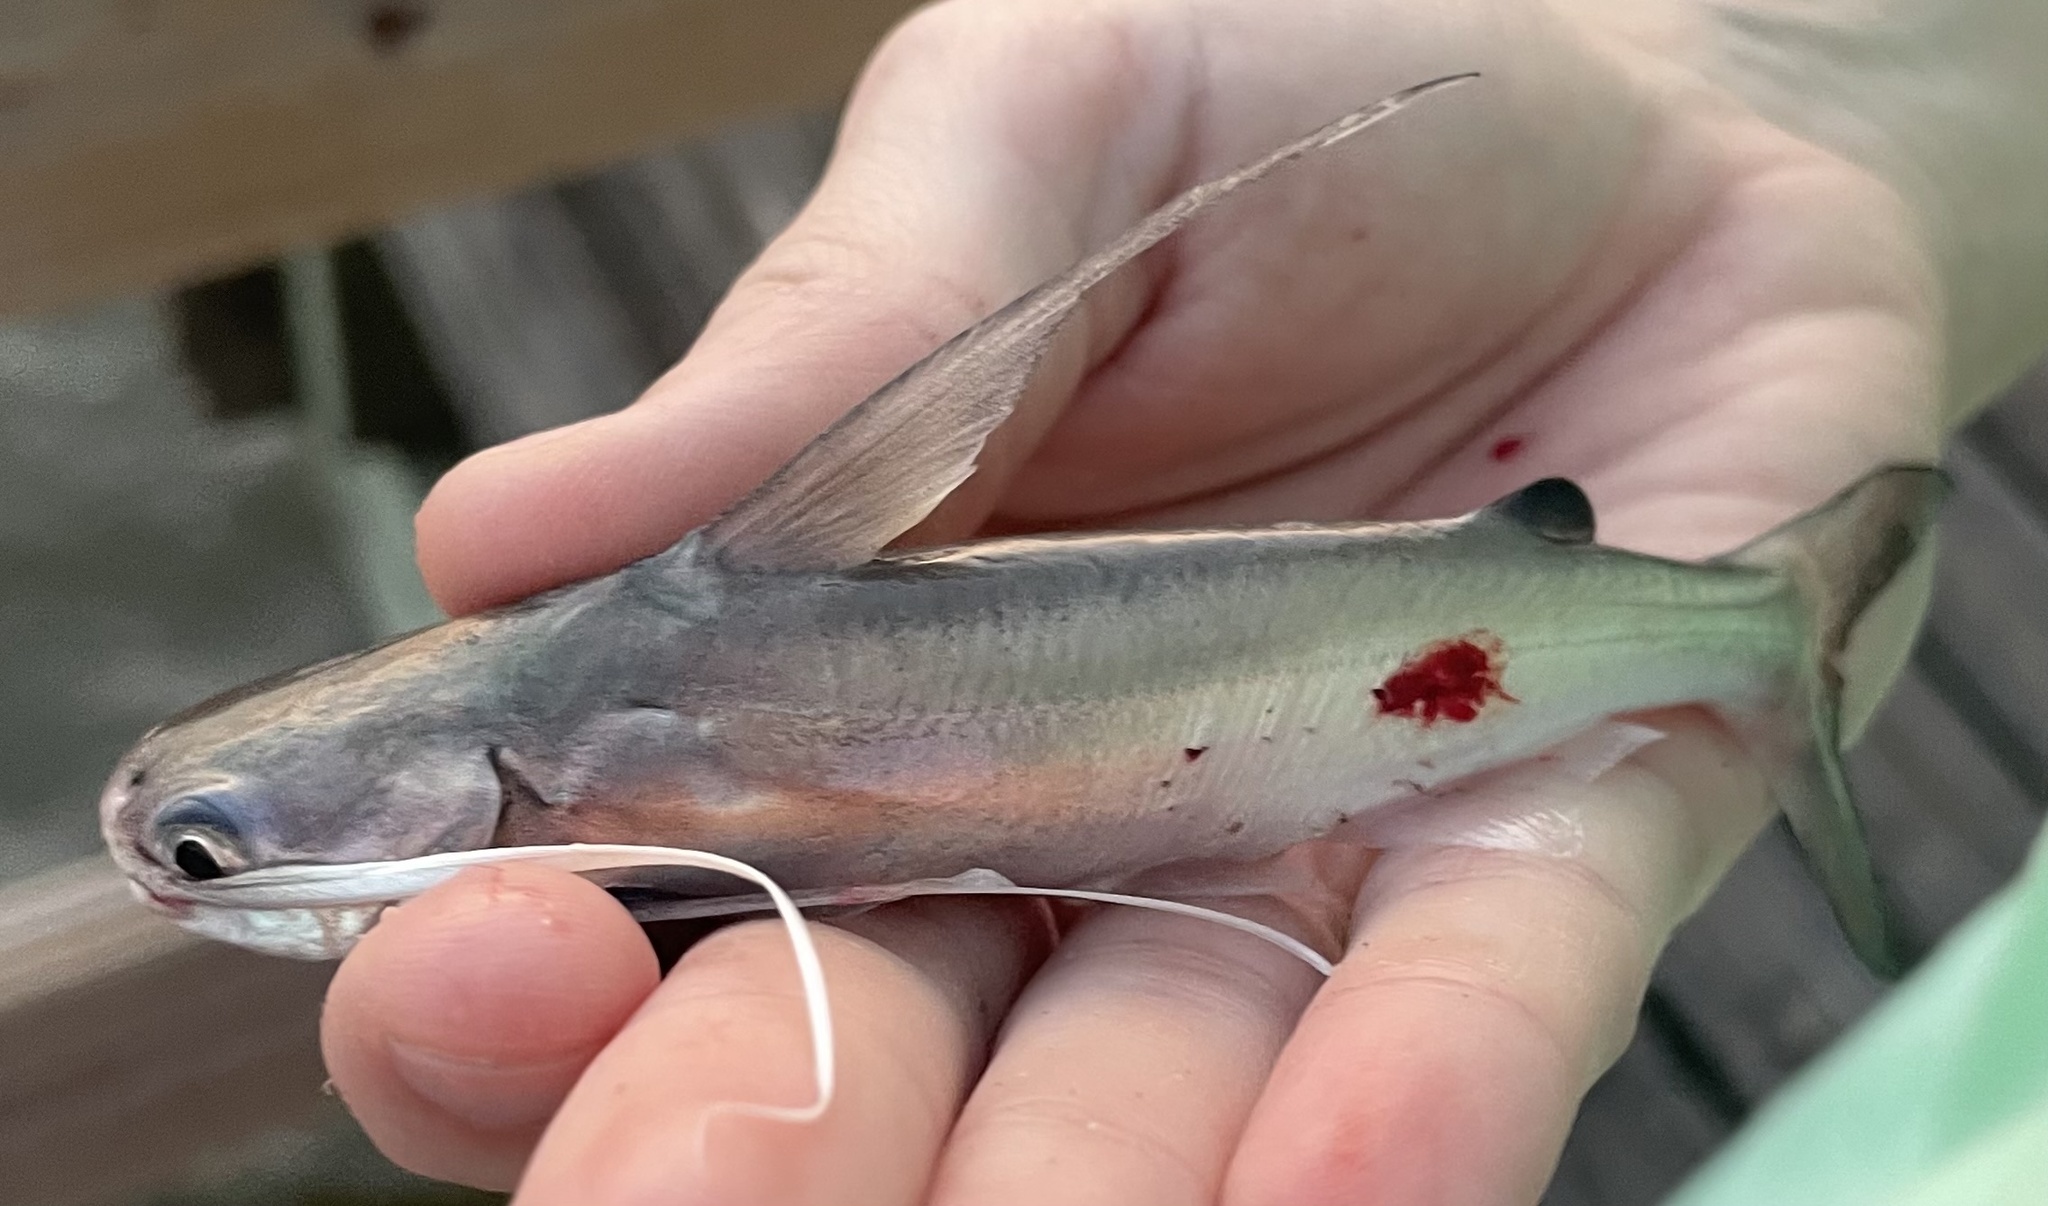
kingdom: Animalia
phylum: Chordata
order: Siluriformes
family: Ariidae
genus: Bagre
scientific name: Bagre marinus
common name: Gafftopsail sea catfish
